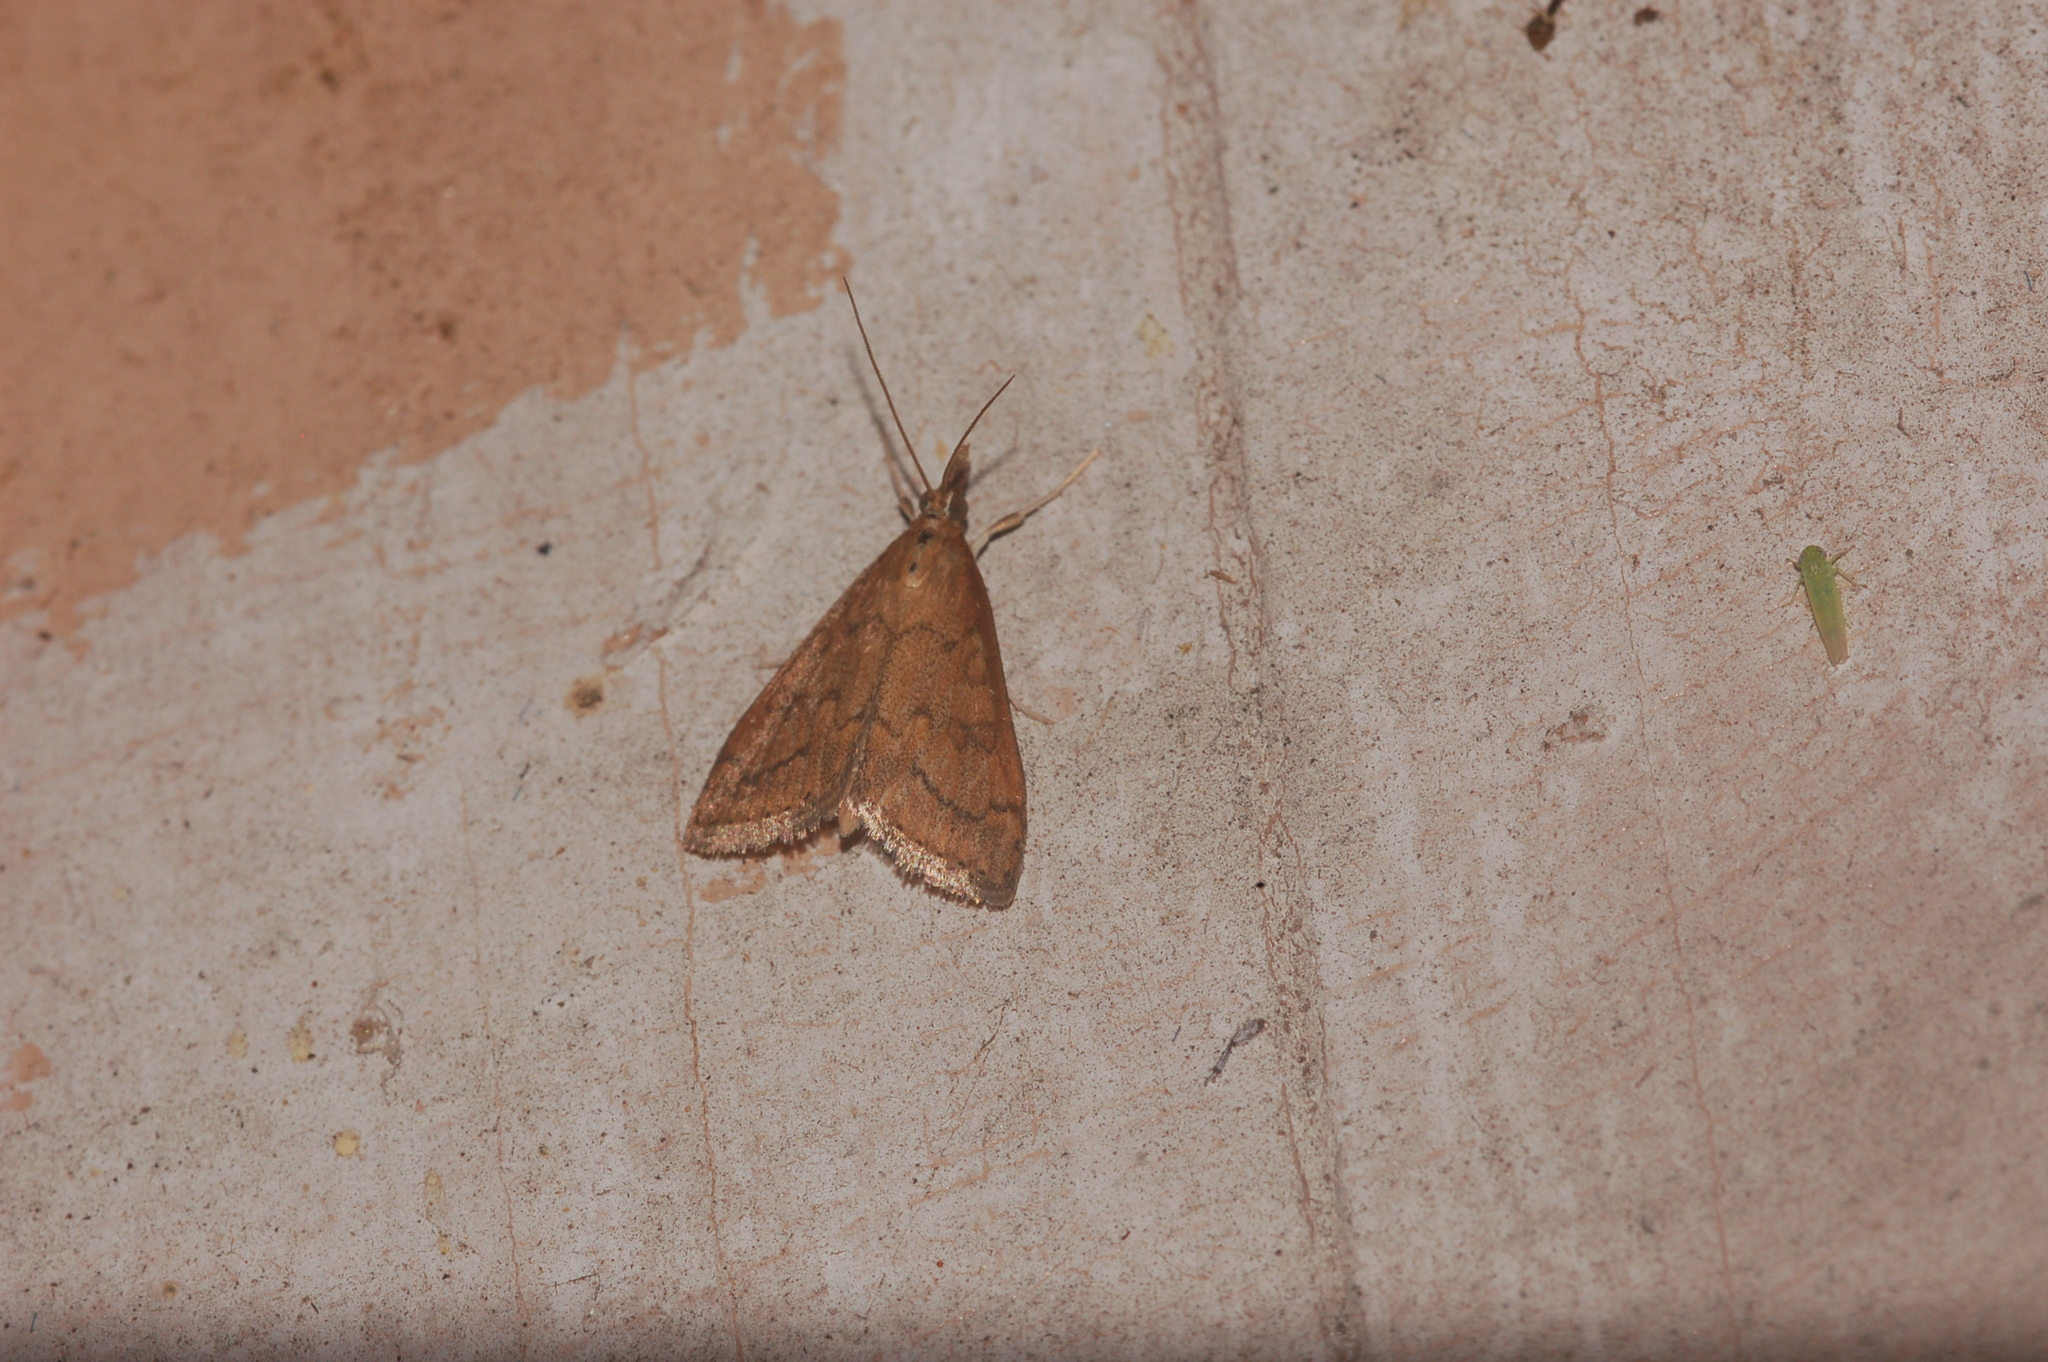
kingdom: Animalia
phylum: Arthropoda
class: Insecta
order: Lepidoptera
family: Crambidae
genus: Udea
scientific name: Udea rubigalis
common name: Celery leaftier moth
